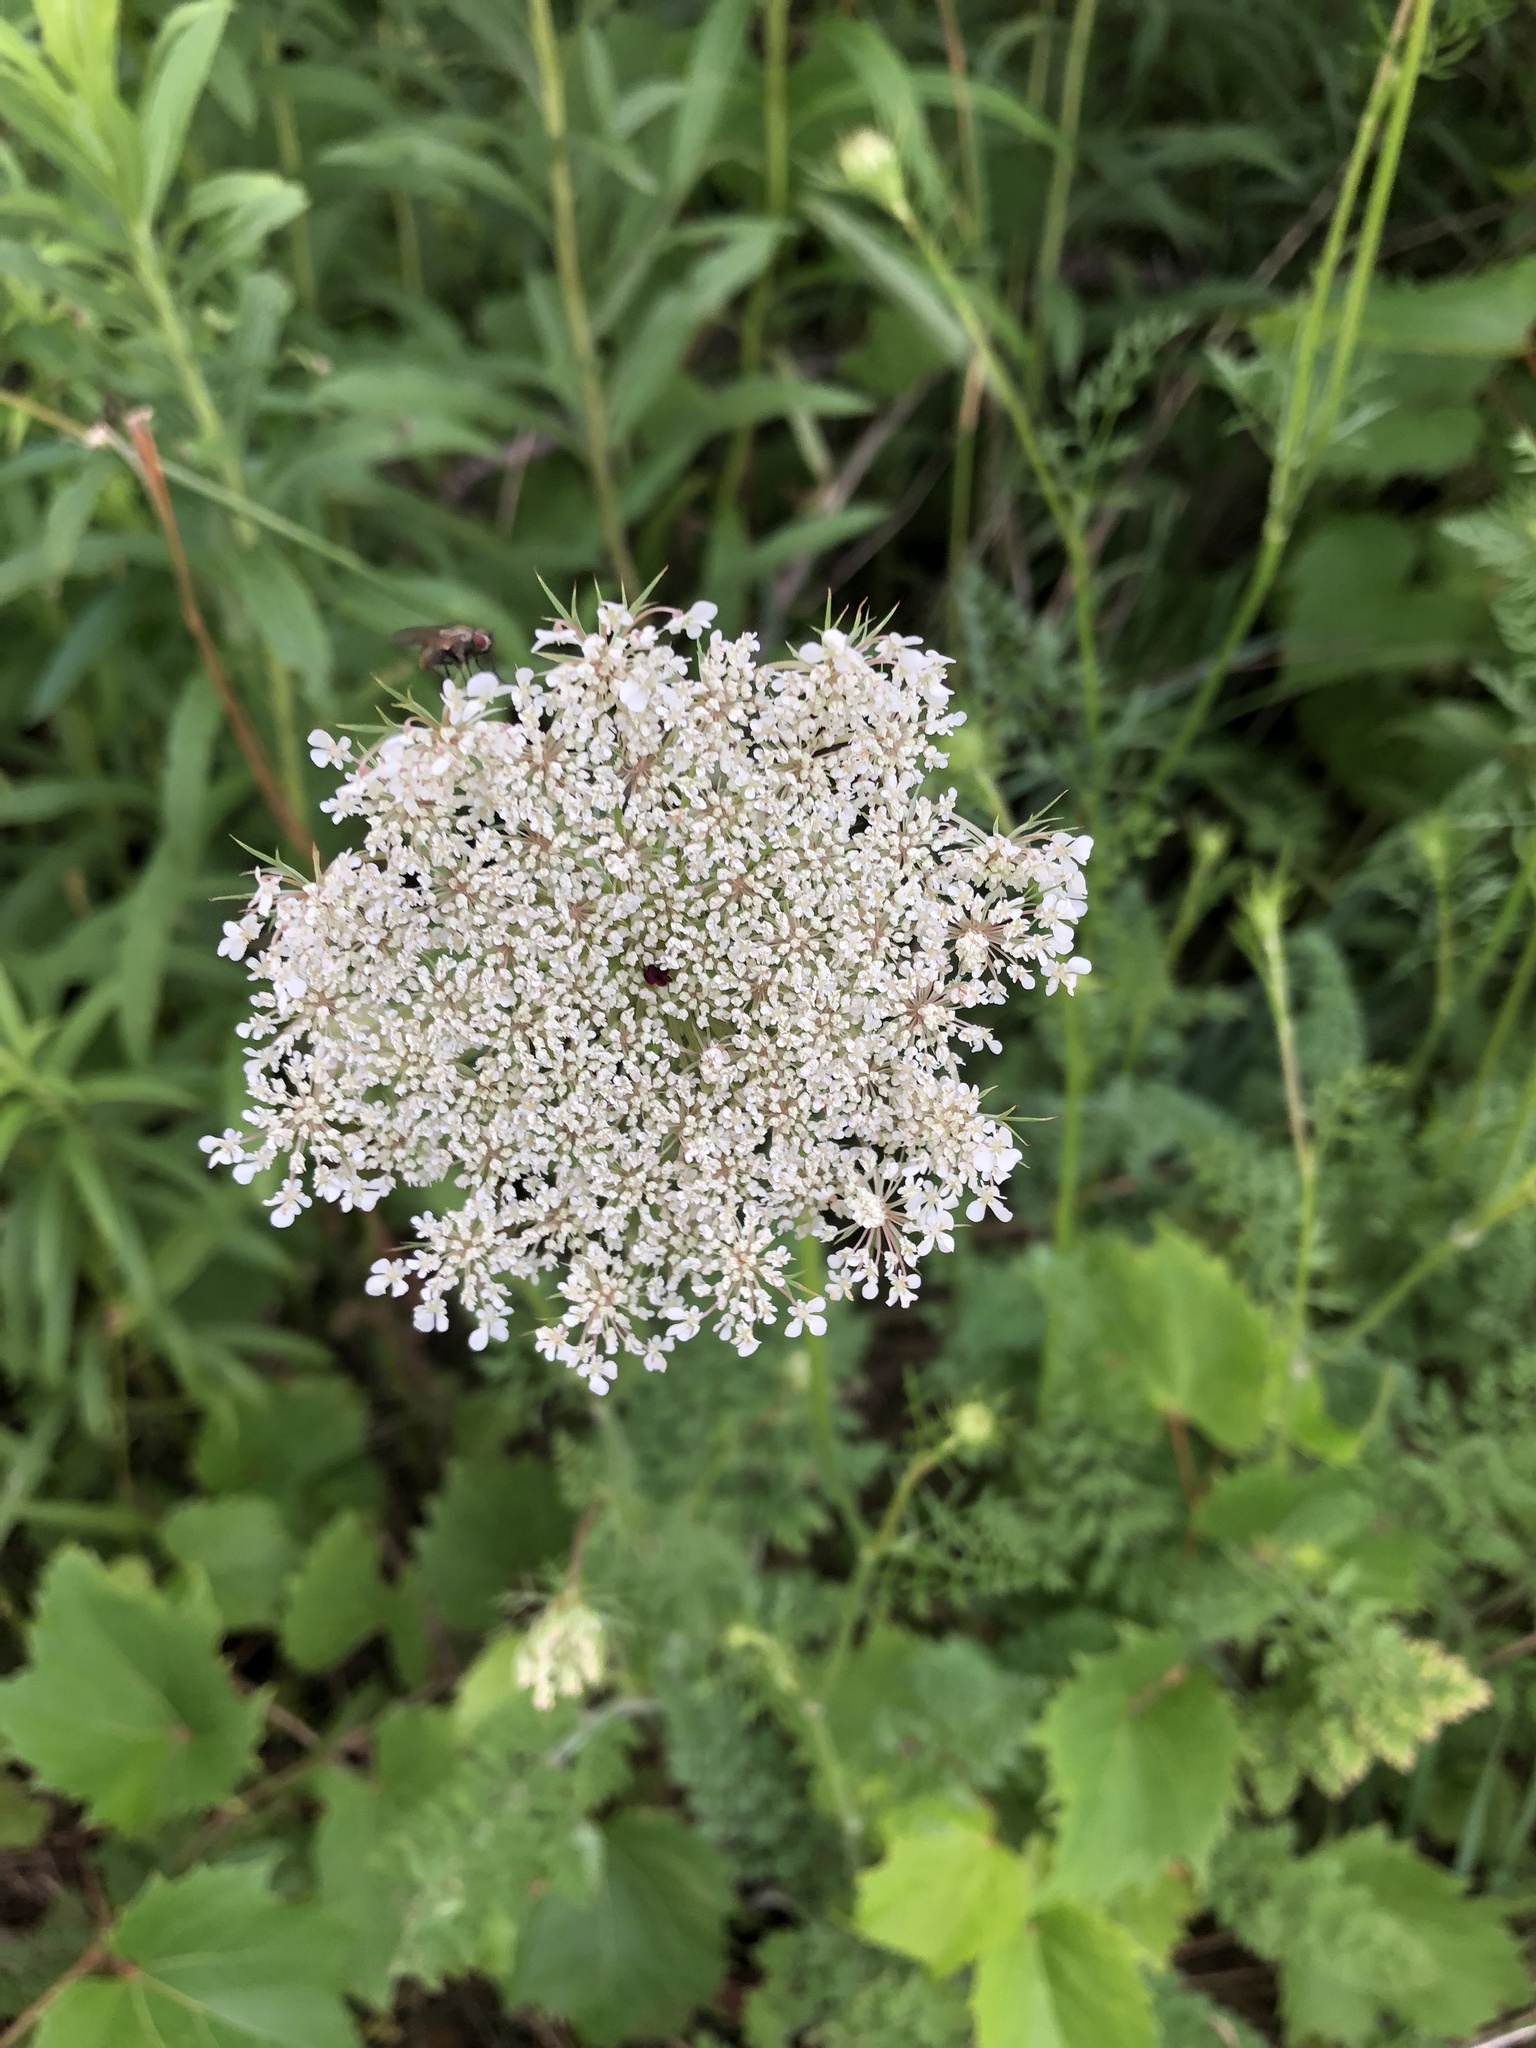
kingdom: Plantae
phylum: Tracheophyta
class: Magnoliopsida
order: Apiales
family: Apiaceae
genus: Daucus
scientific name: Daucus carota
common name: Wild carrot
